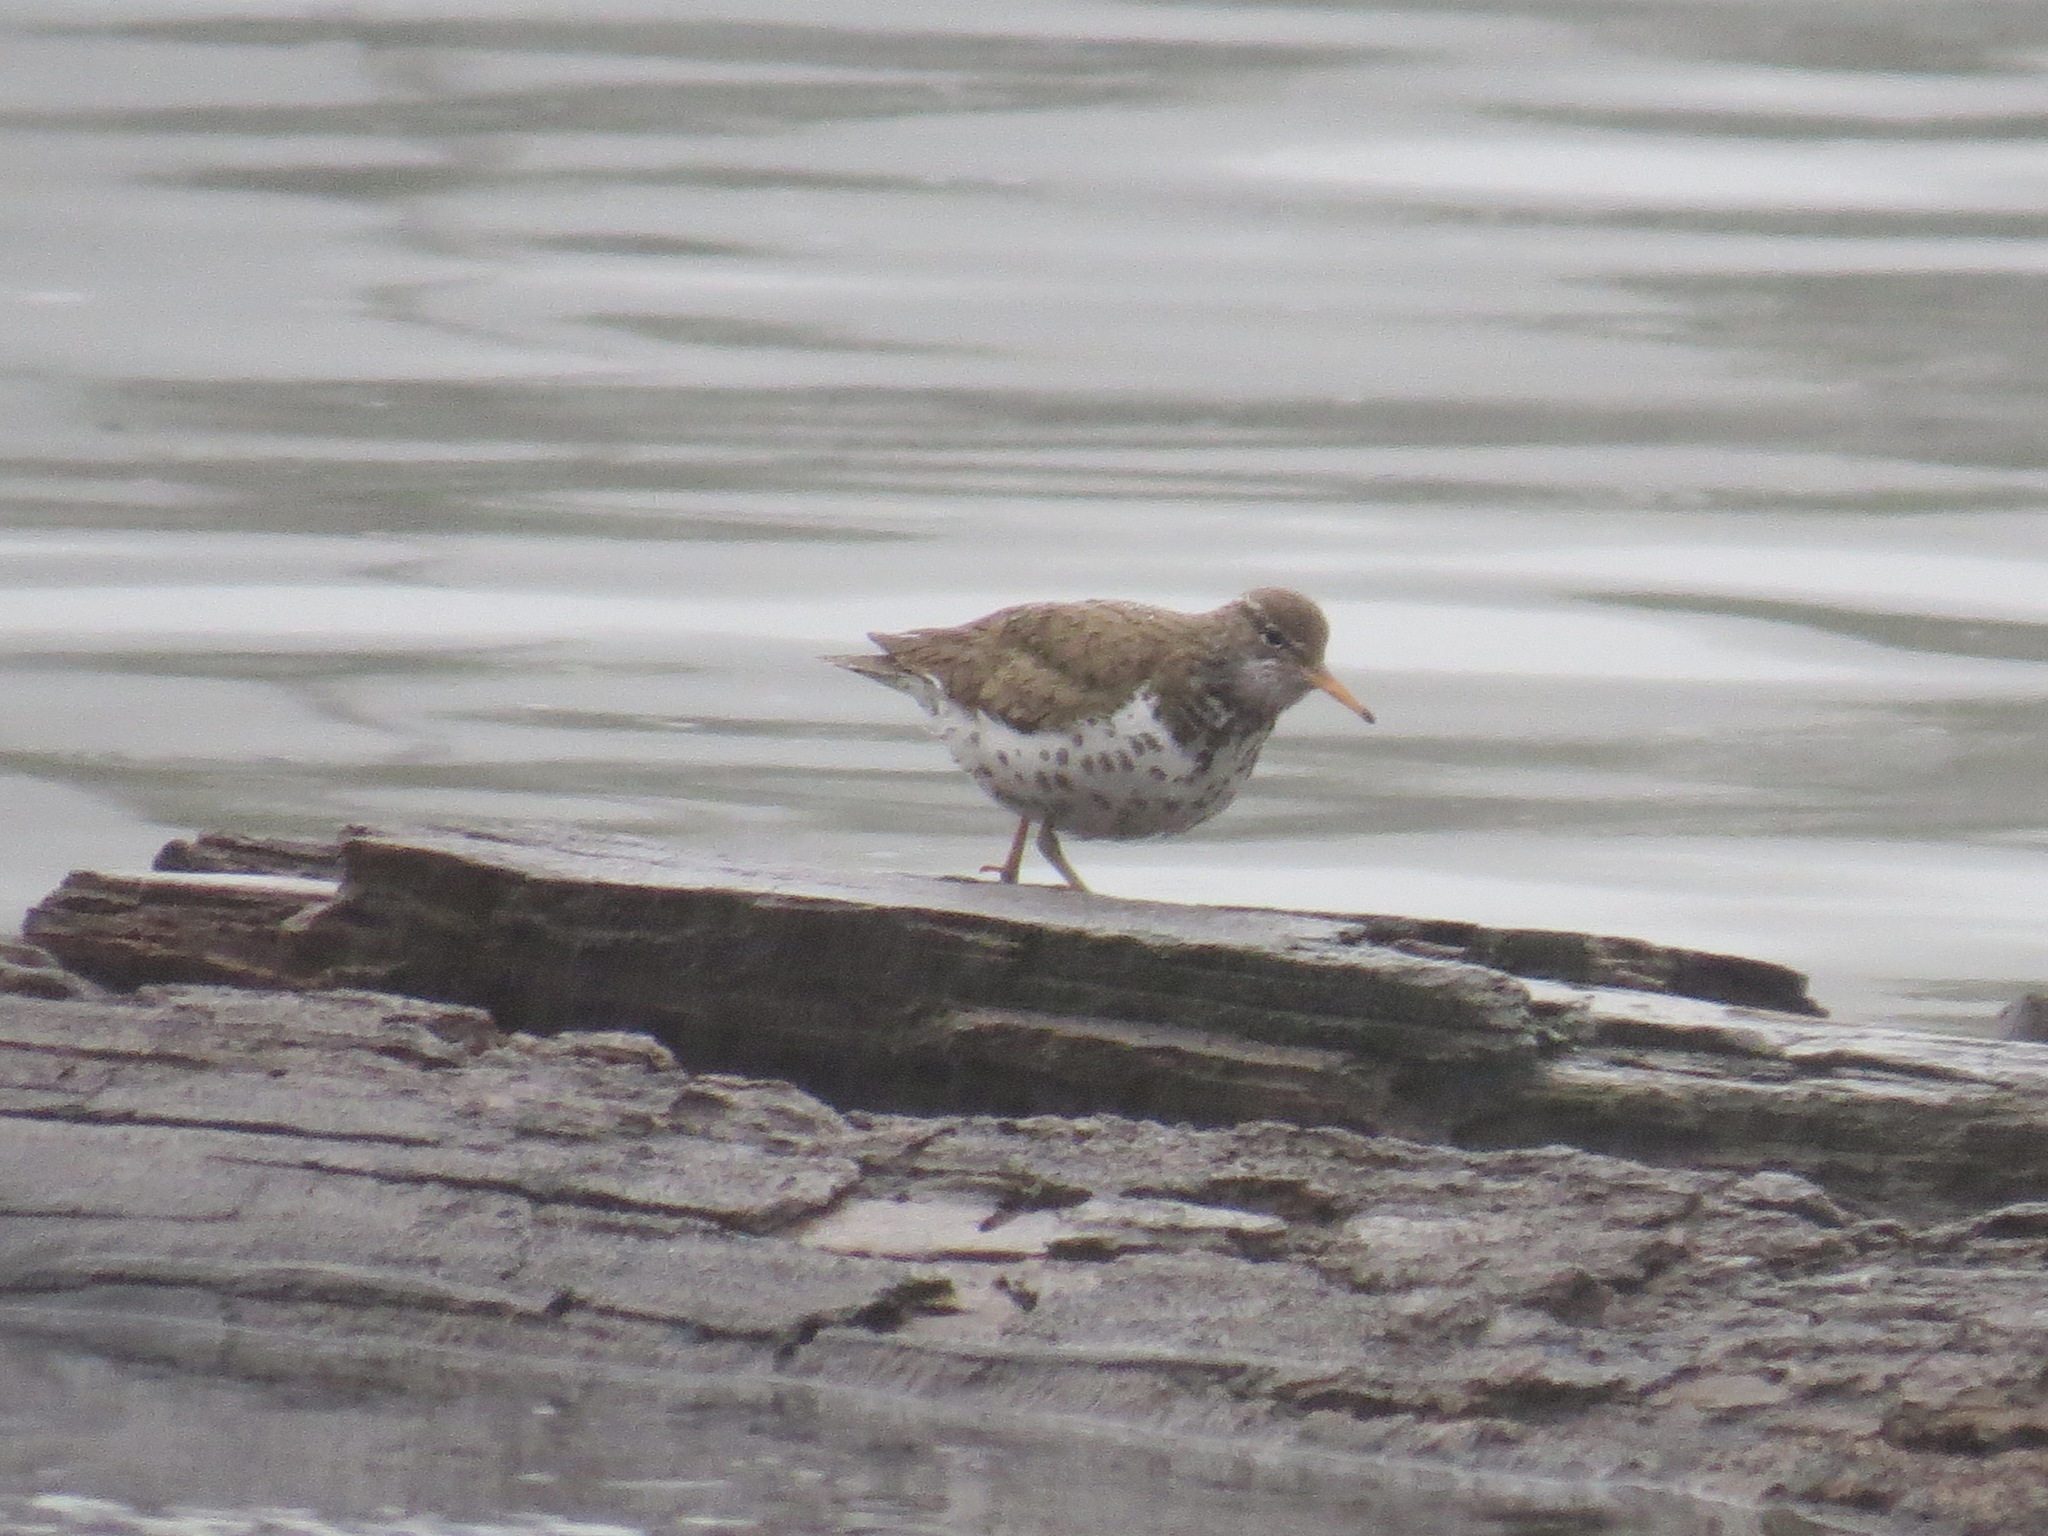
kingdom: Animalia
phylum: Chordata
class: Aves
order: Charadriiformes
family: Scolopacidae
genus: Actitis
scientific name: Actitis macularius
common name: Spotted sandpiper
